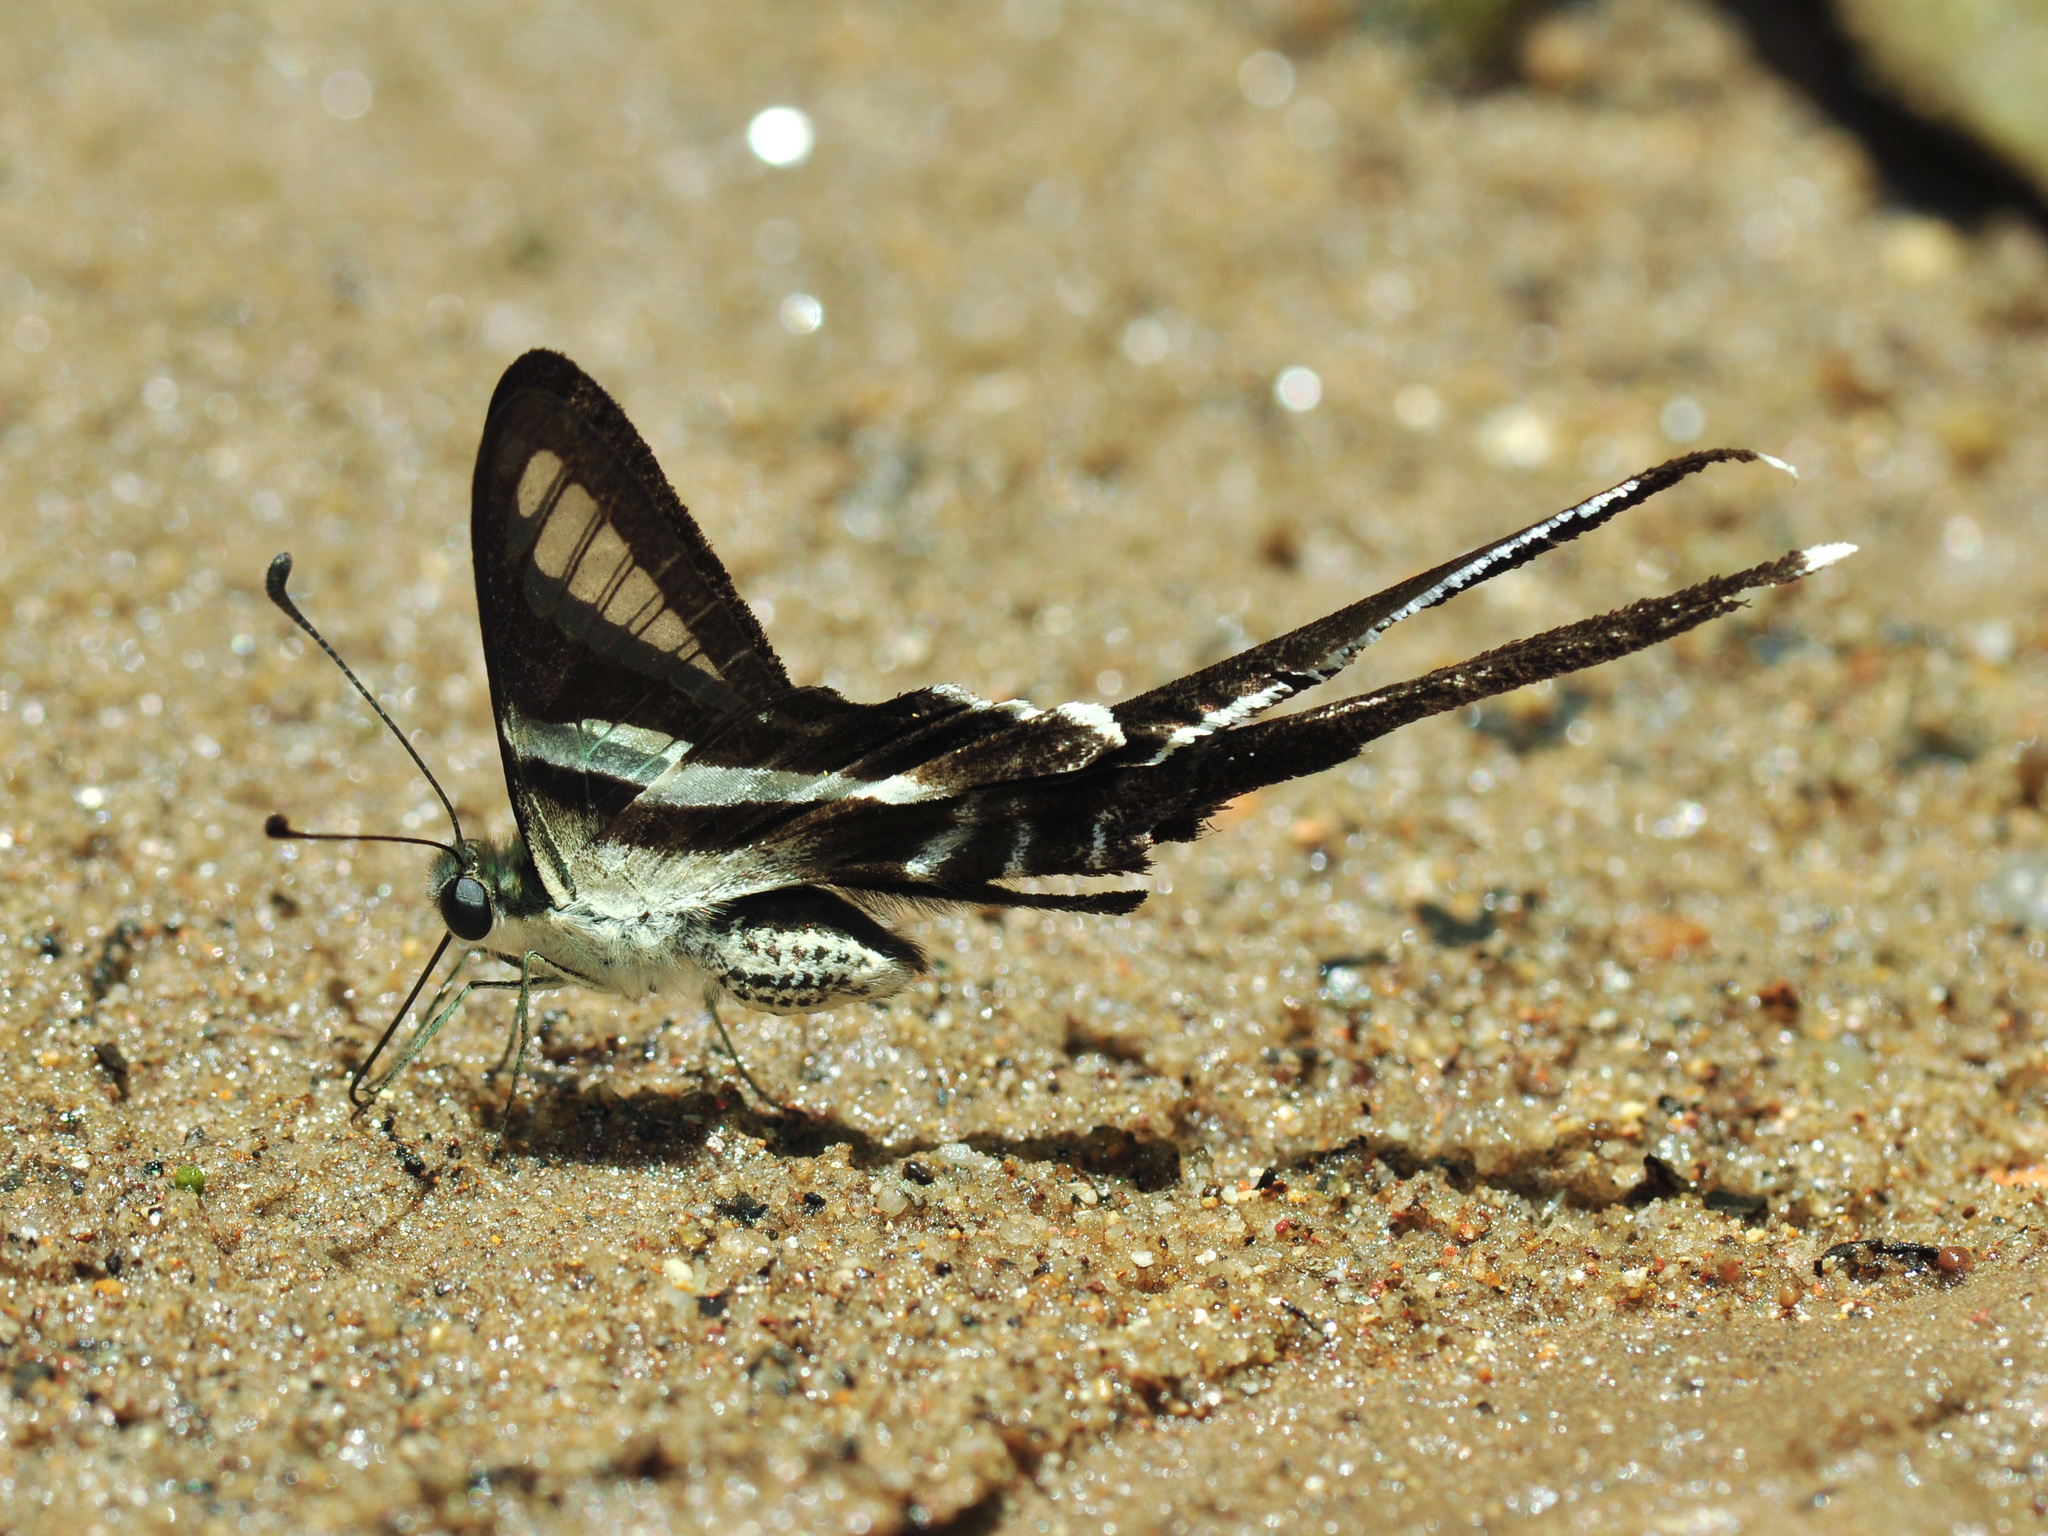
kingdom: Animalia
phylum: Arthropoda
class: Insecta
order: Lepidoptera
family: Papilionidae
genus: Lamproptera
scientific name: Lamproptera curius
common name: White dragontail
